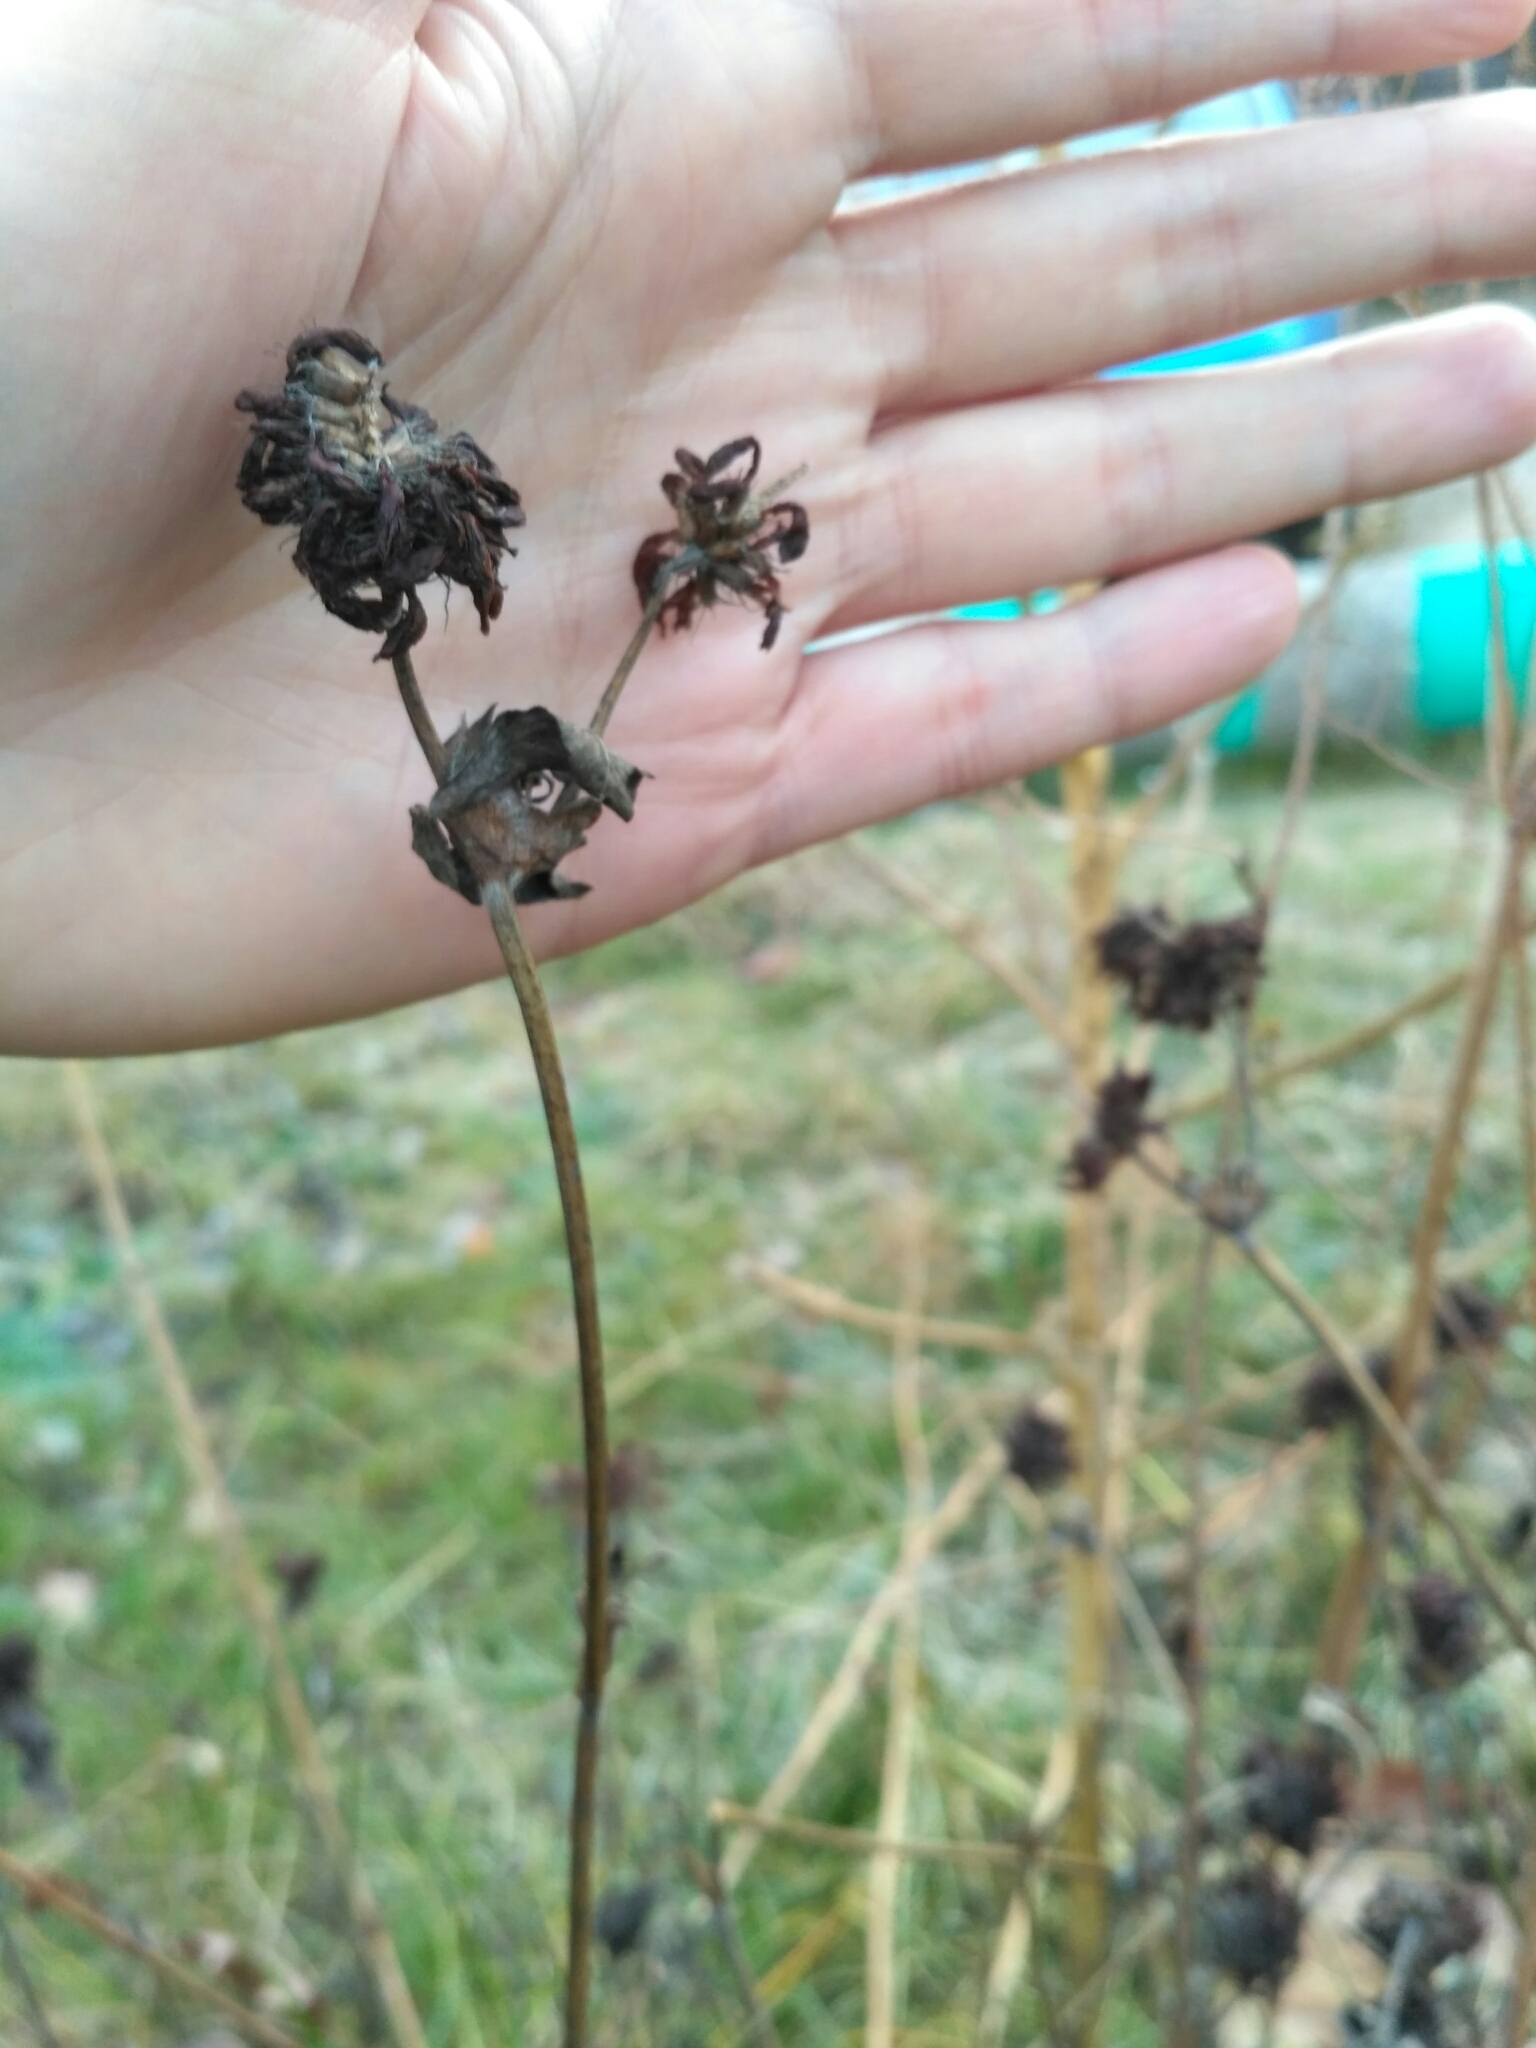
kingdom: Plantae
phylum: Tracheophyta
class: Magnoliopsida
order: Fabales
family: Fabaceae
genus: Trifolium
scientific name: Trifolium pratense
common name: Red clover
